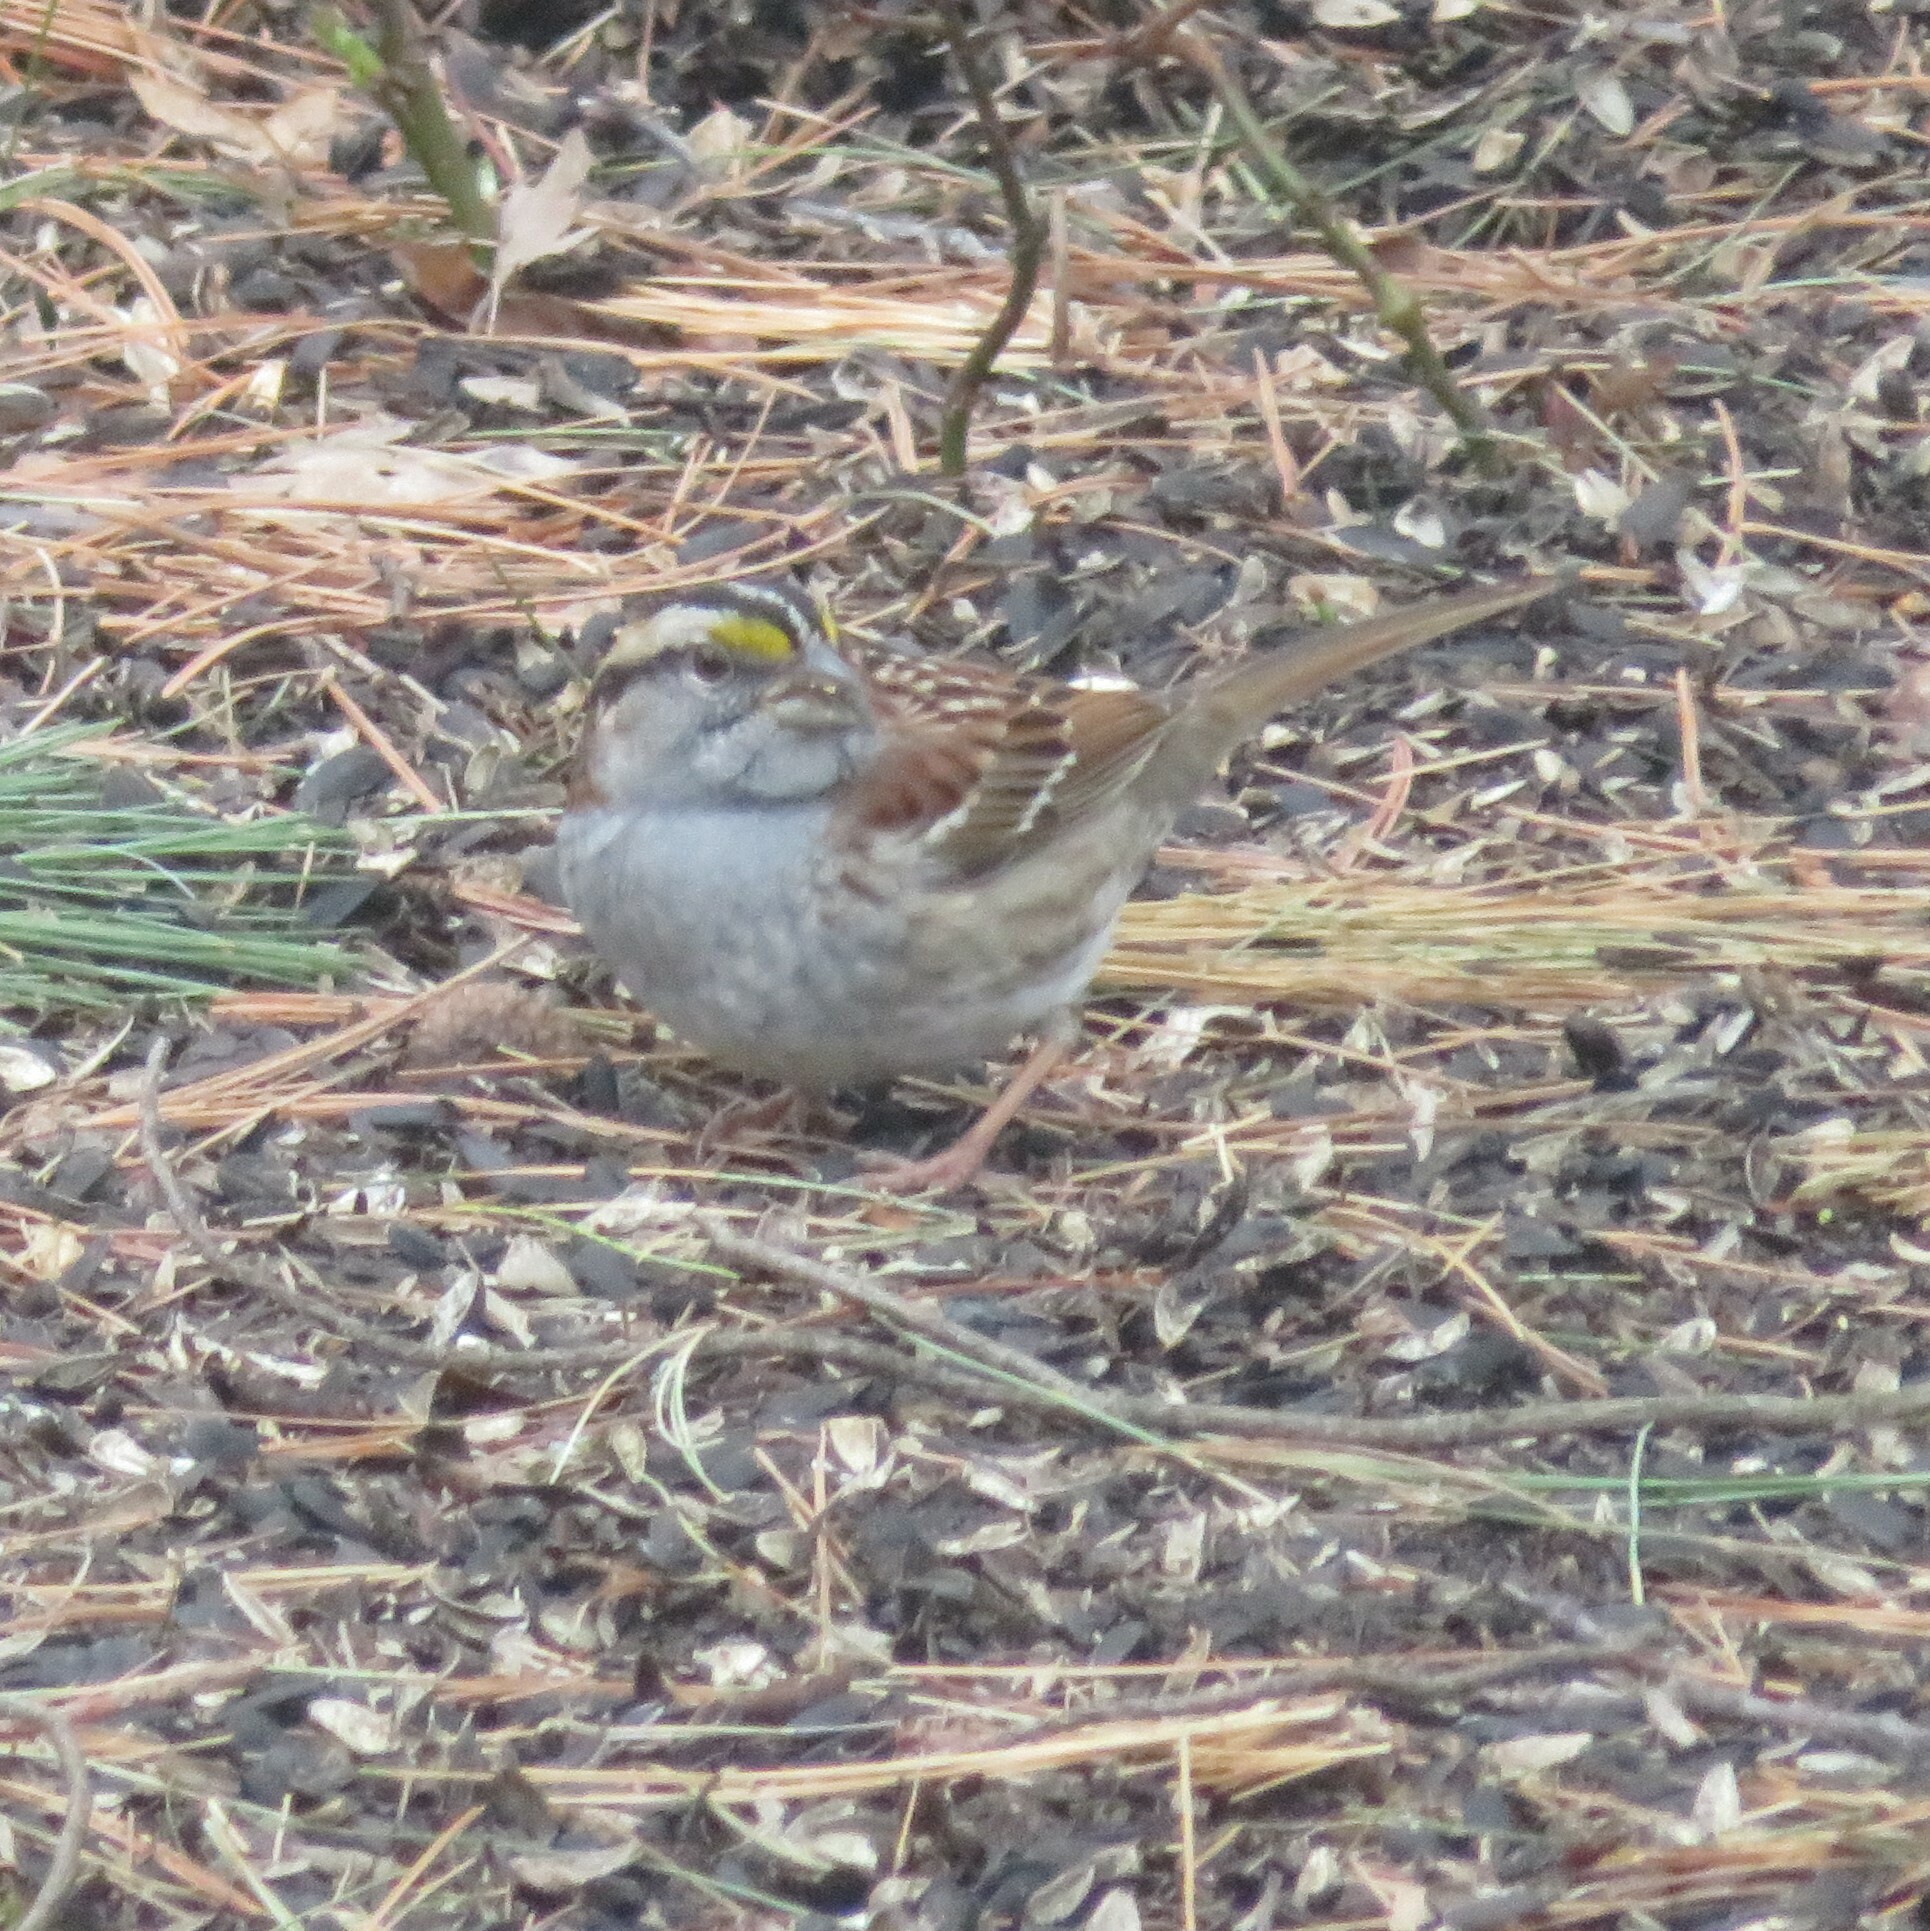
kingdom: Animalia
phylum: Chordata
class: Aves
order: Passeriformes
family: Passerellidae
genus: Zonotrichia
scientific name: Zonotrichia albicollis
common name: White-throated sparrow
